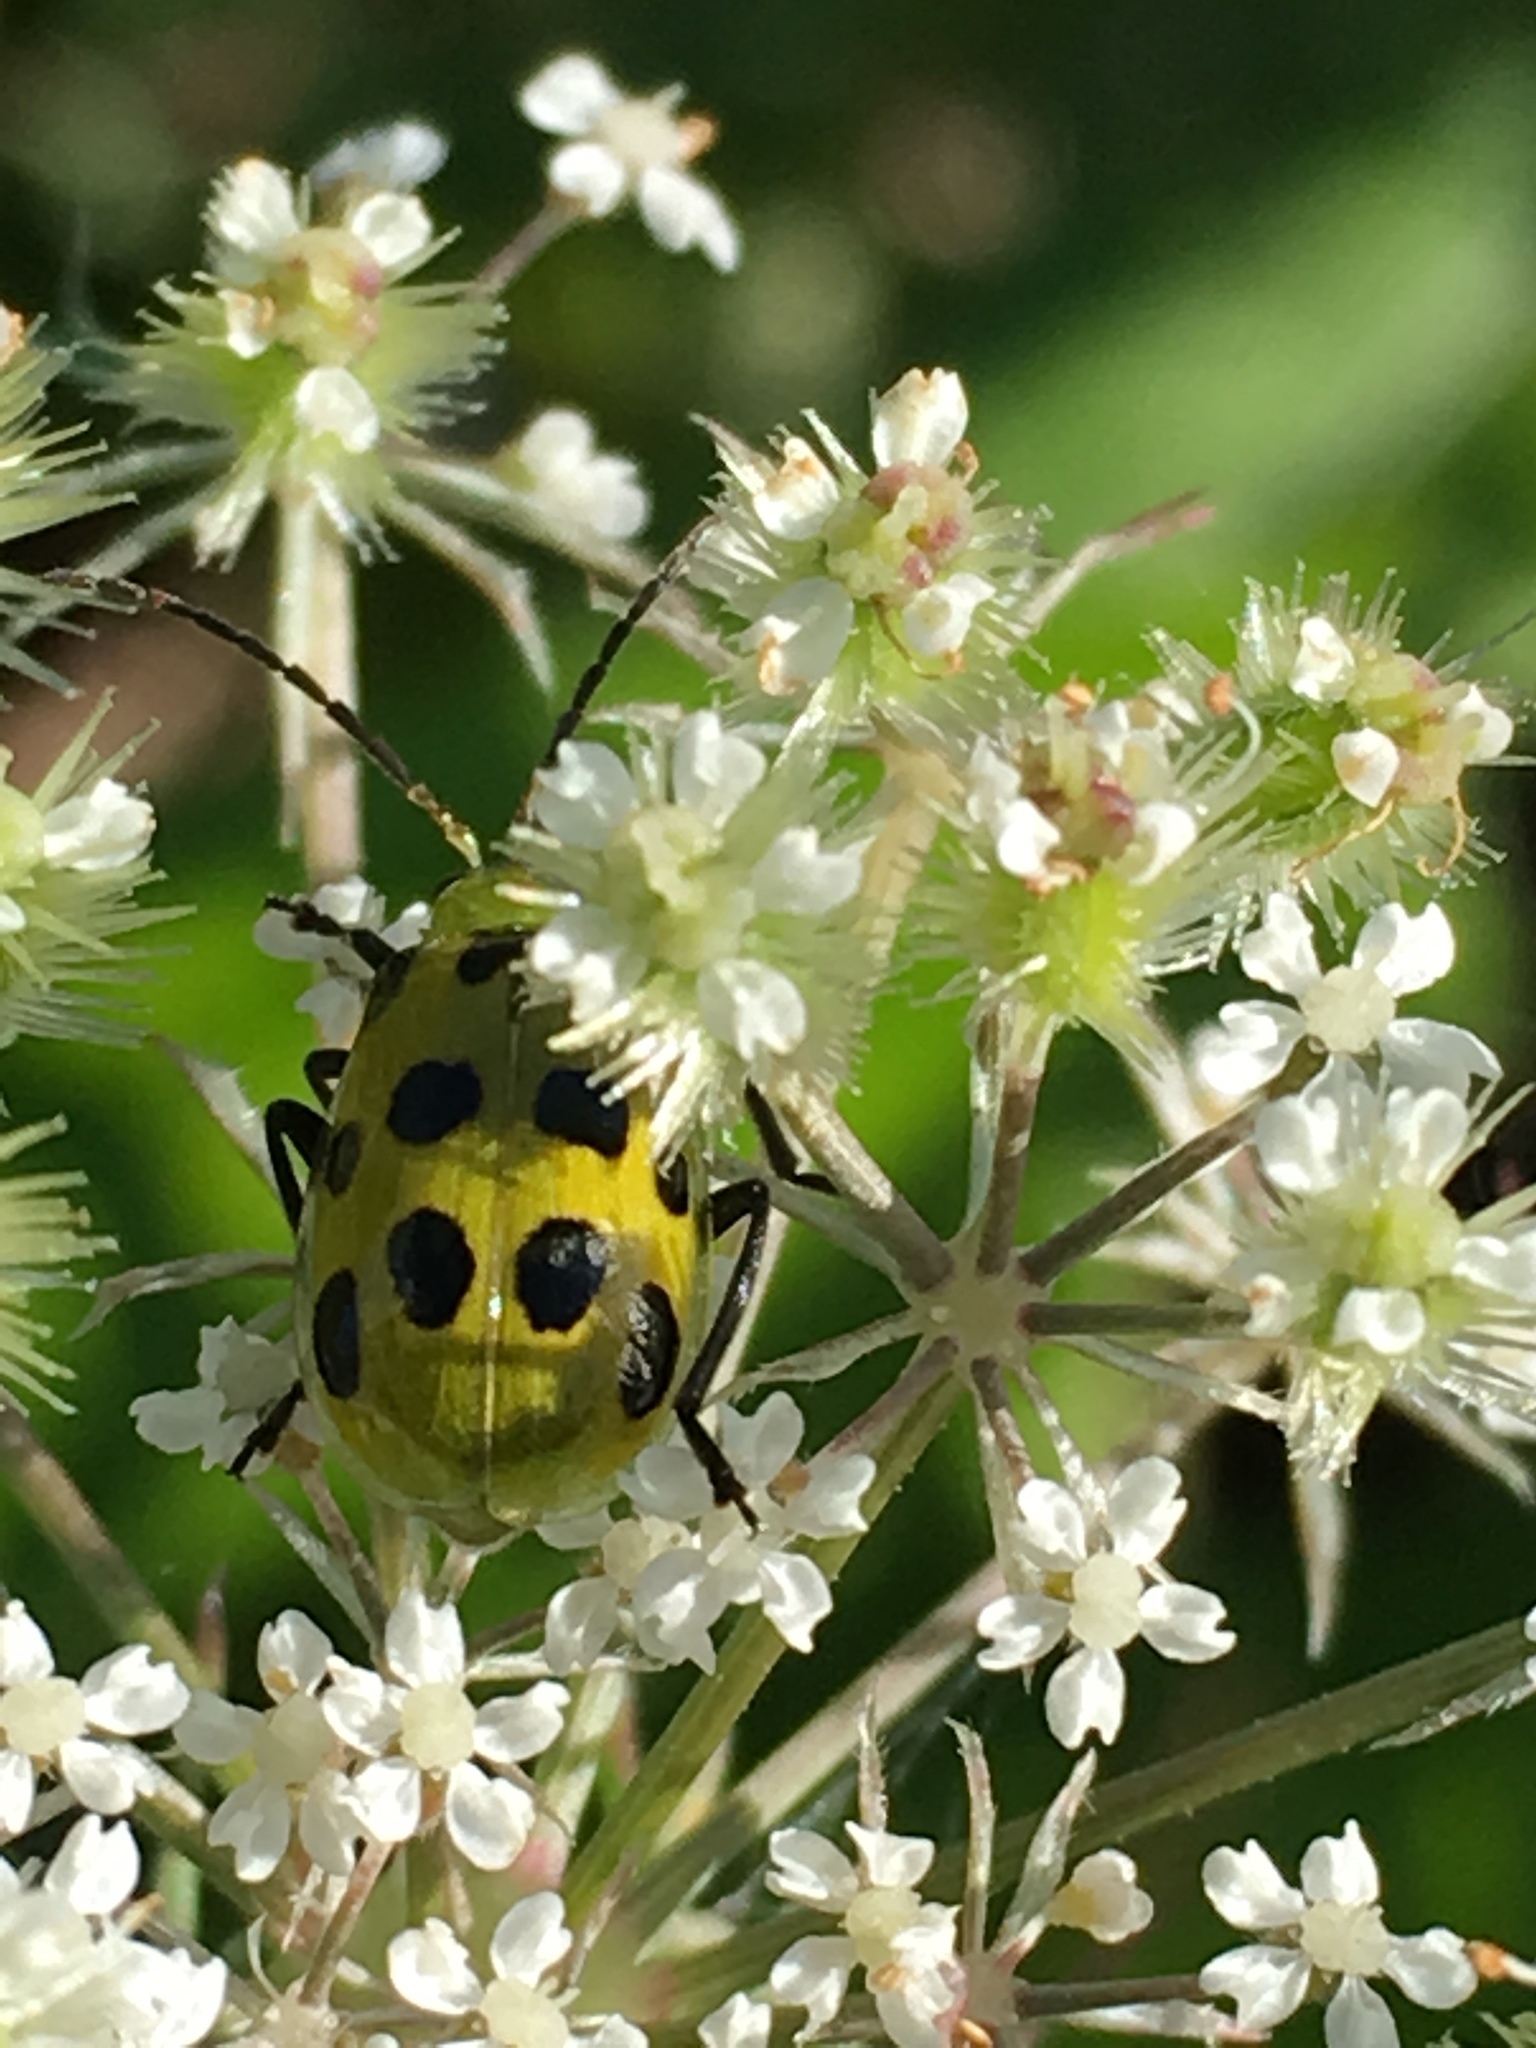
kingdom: Animalia
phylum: Arthropoda
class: Insecta
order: Coleoptera
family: Chrysomelidae
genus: Diabrotica
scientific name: Diabrotica undecimpunctata
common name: Spotted cucumber beetle
